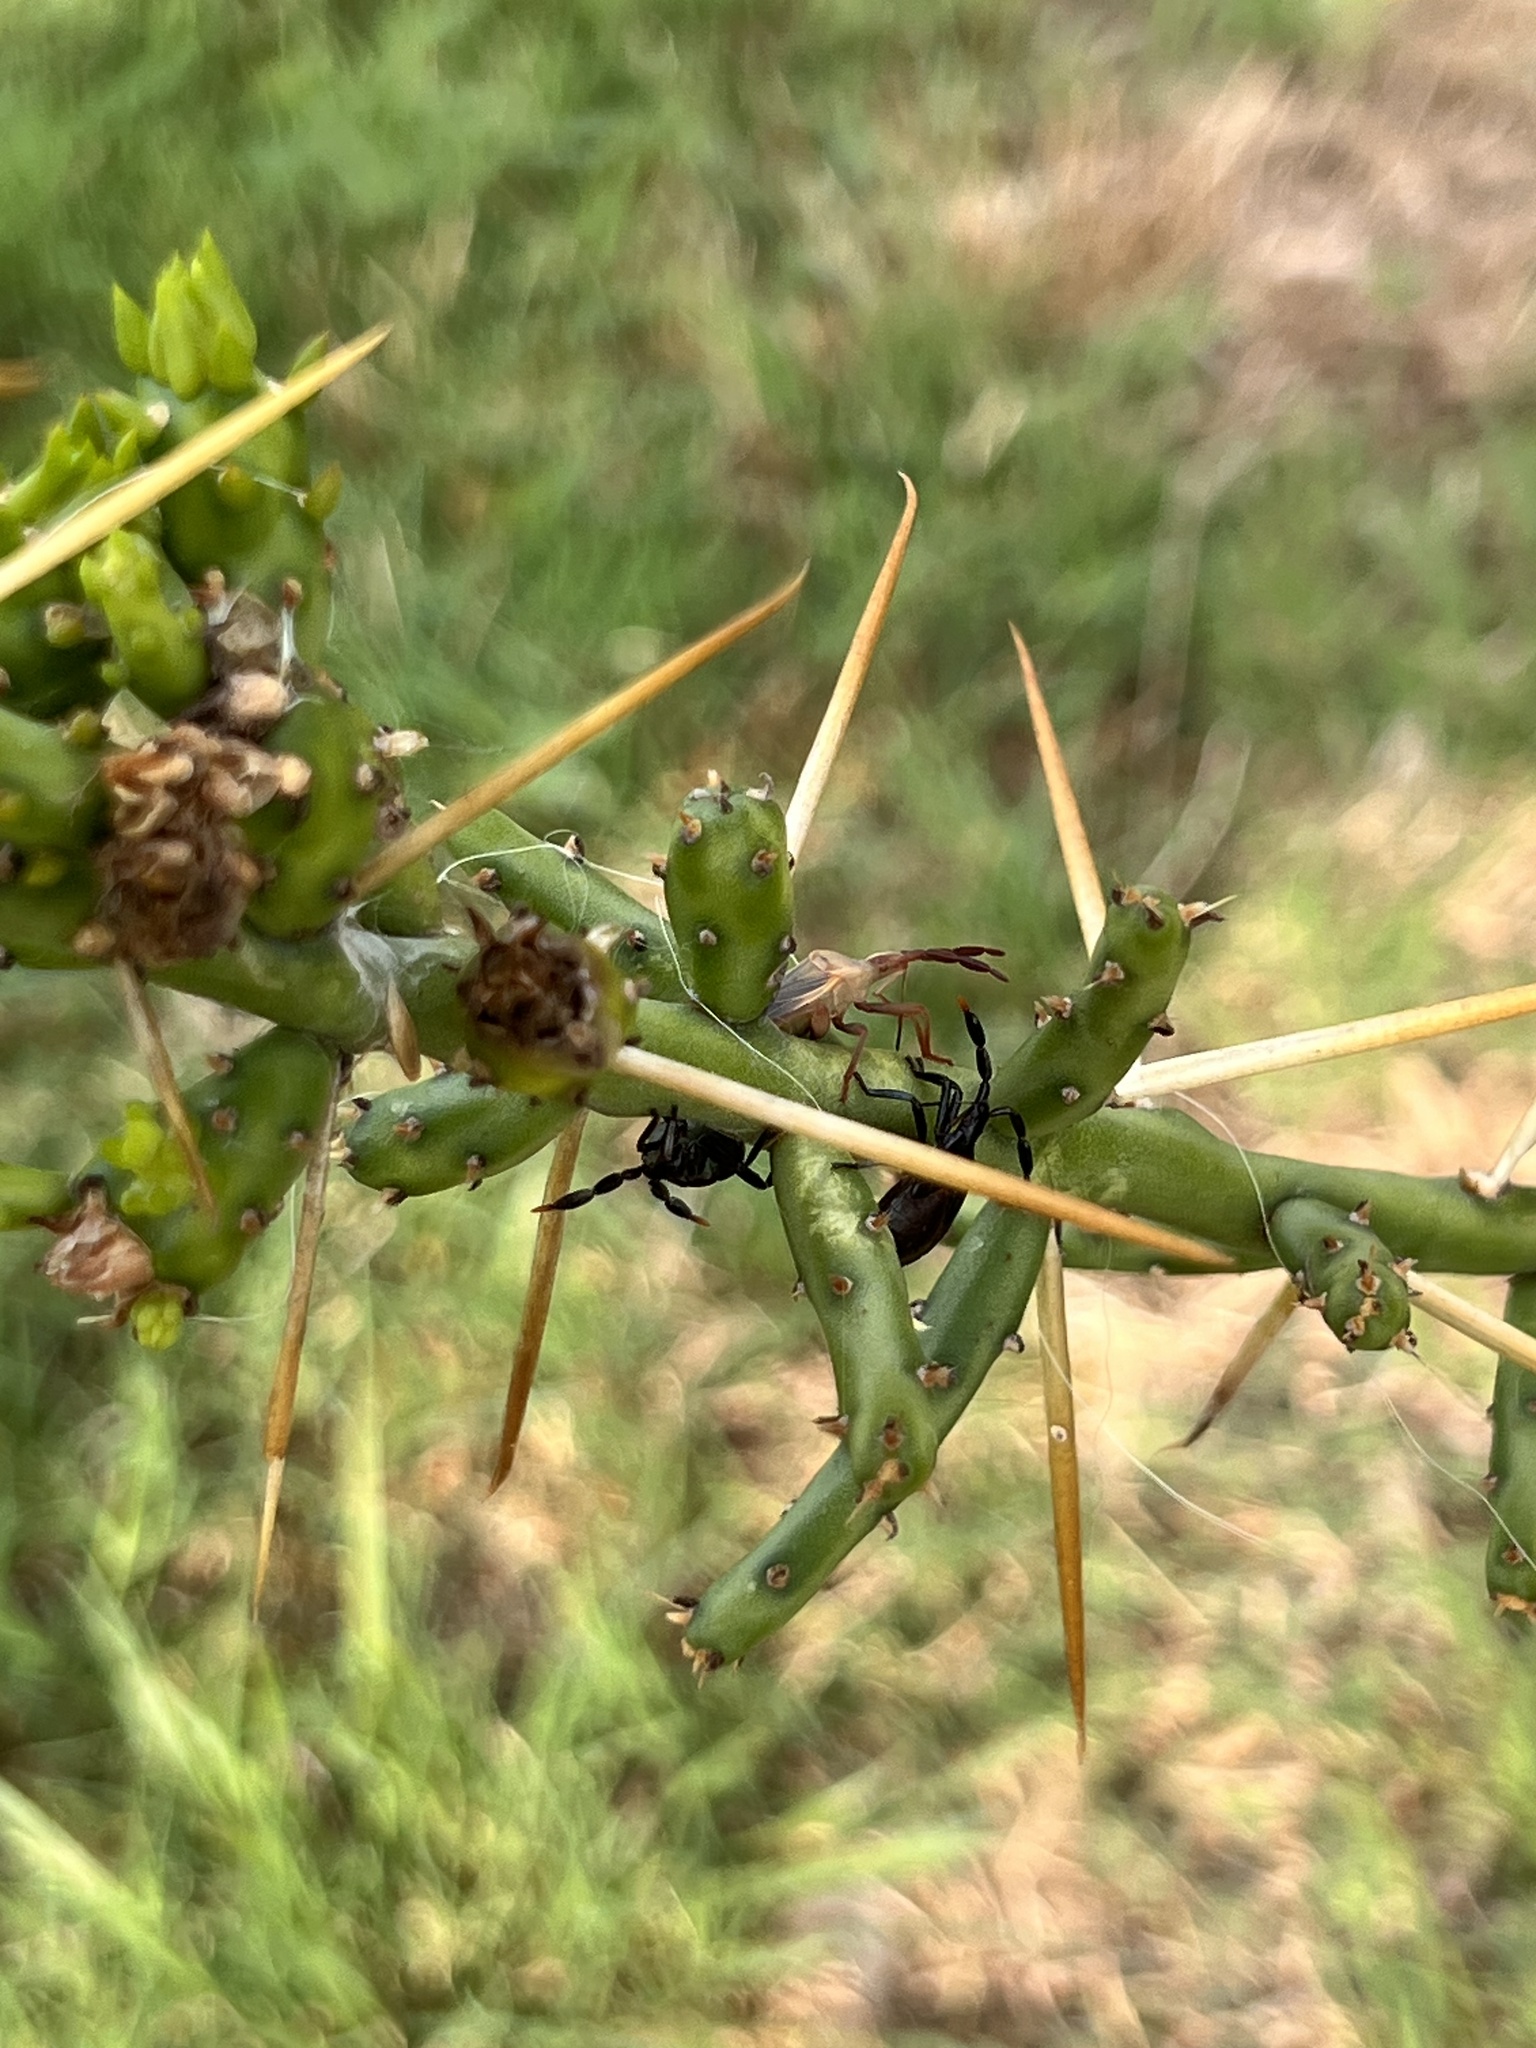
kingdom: Animalia
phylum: Arthropoda
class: Insecta
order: Hemiptera
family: Coreidae
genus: Chelinidea
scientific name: Chelinidea vittiger
